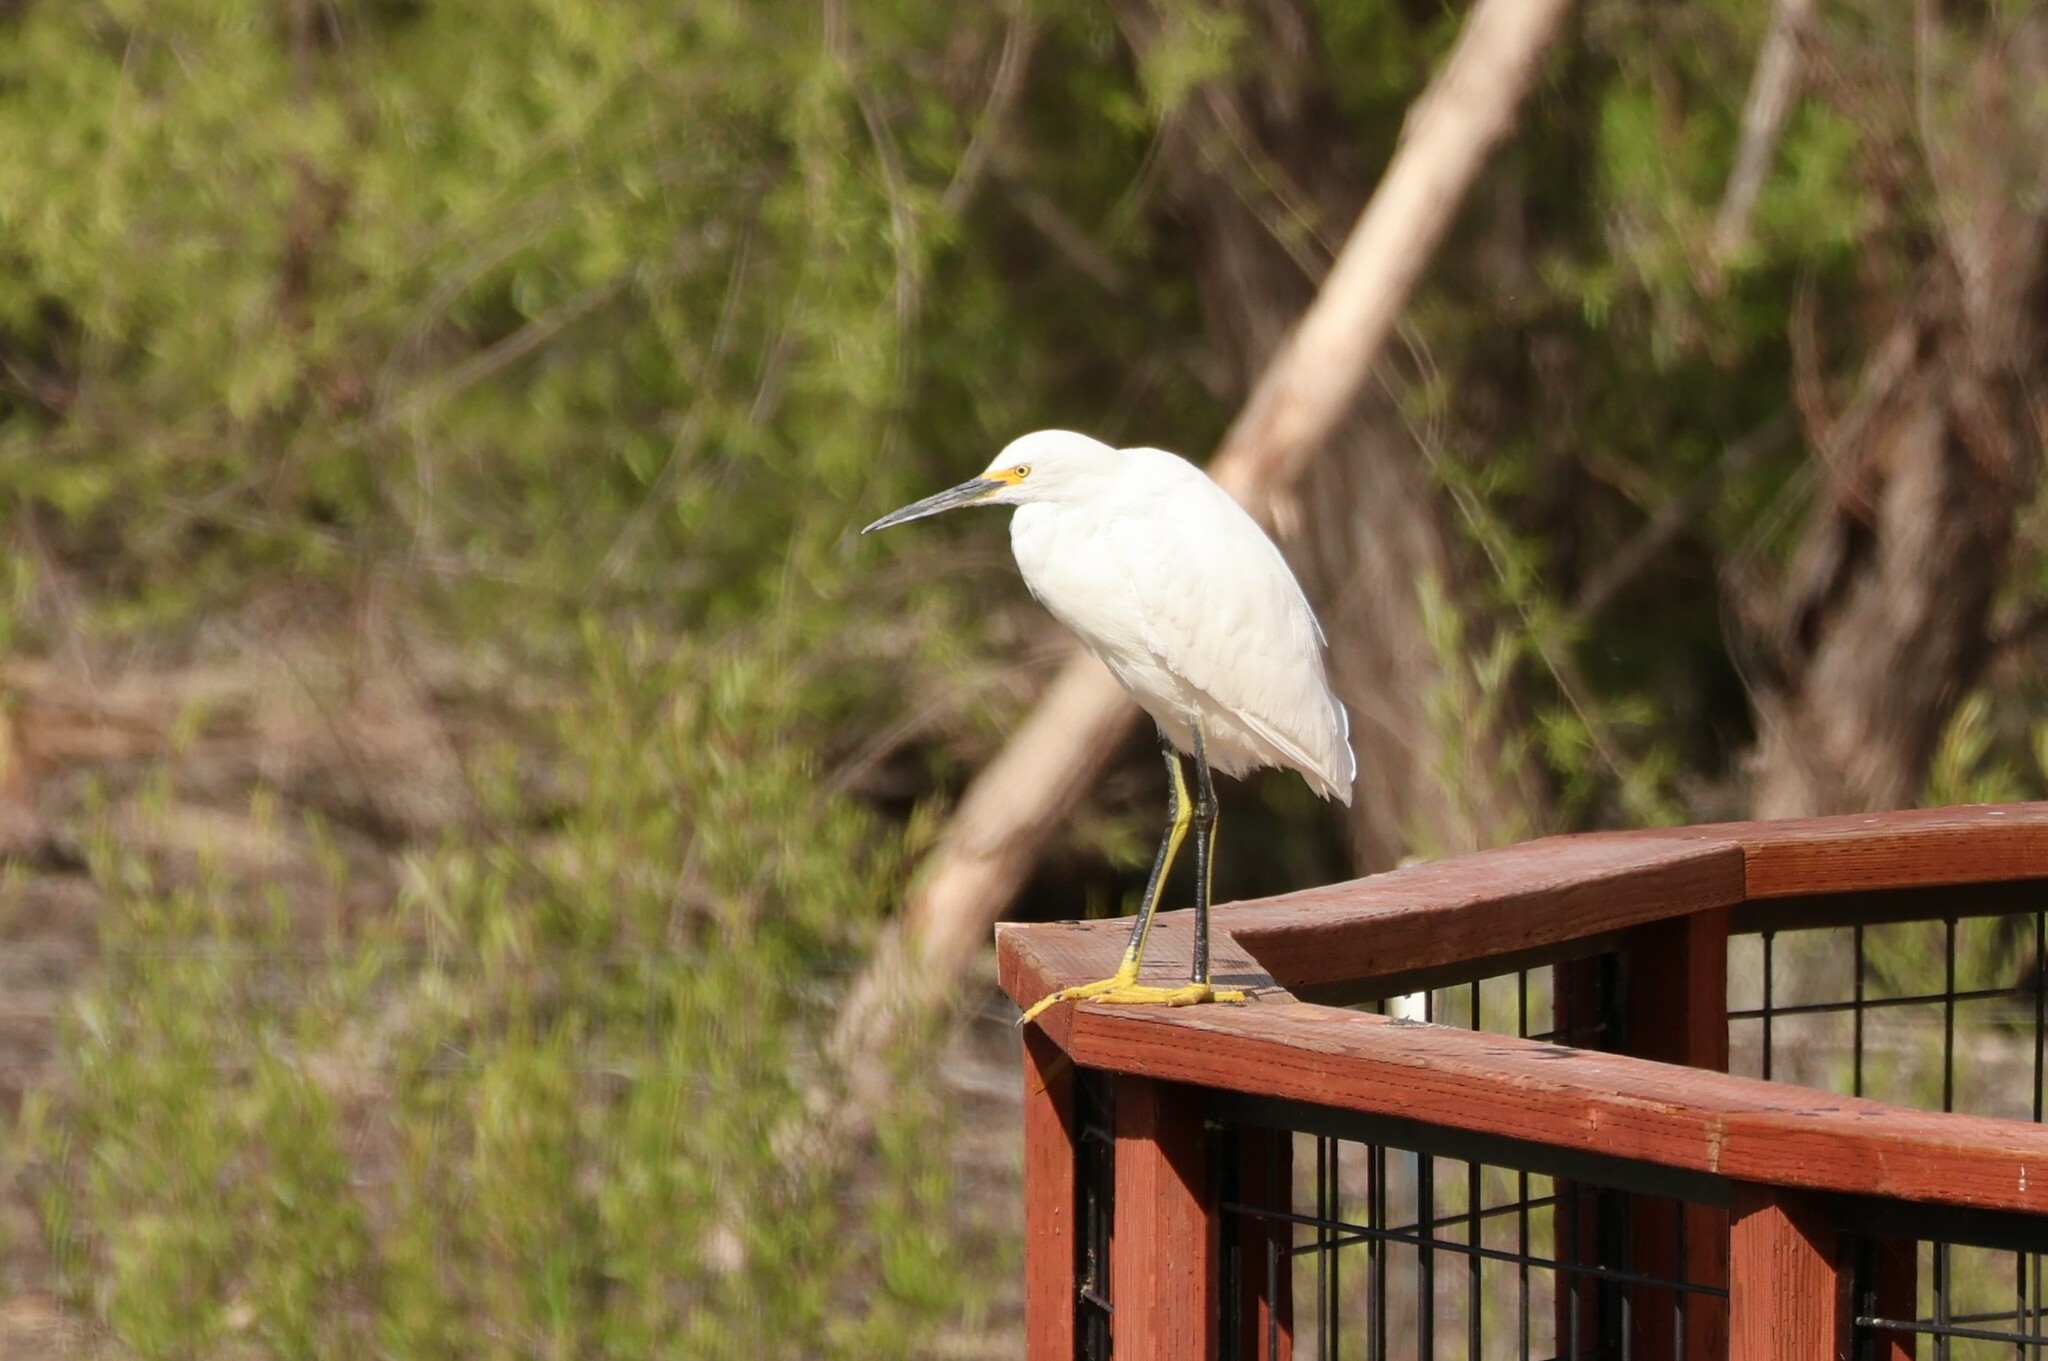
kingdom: Animalia
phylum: Chordata
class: Aves
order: Pelecaniformes
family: Ardeidae
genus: Egretta
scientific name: Egretta thula
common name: Snowy egret
